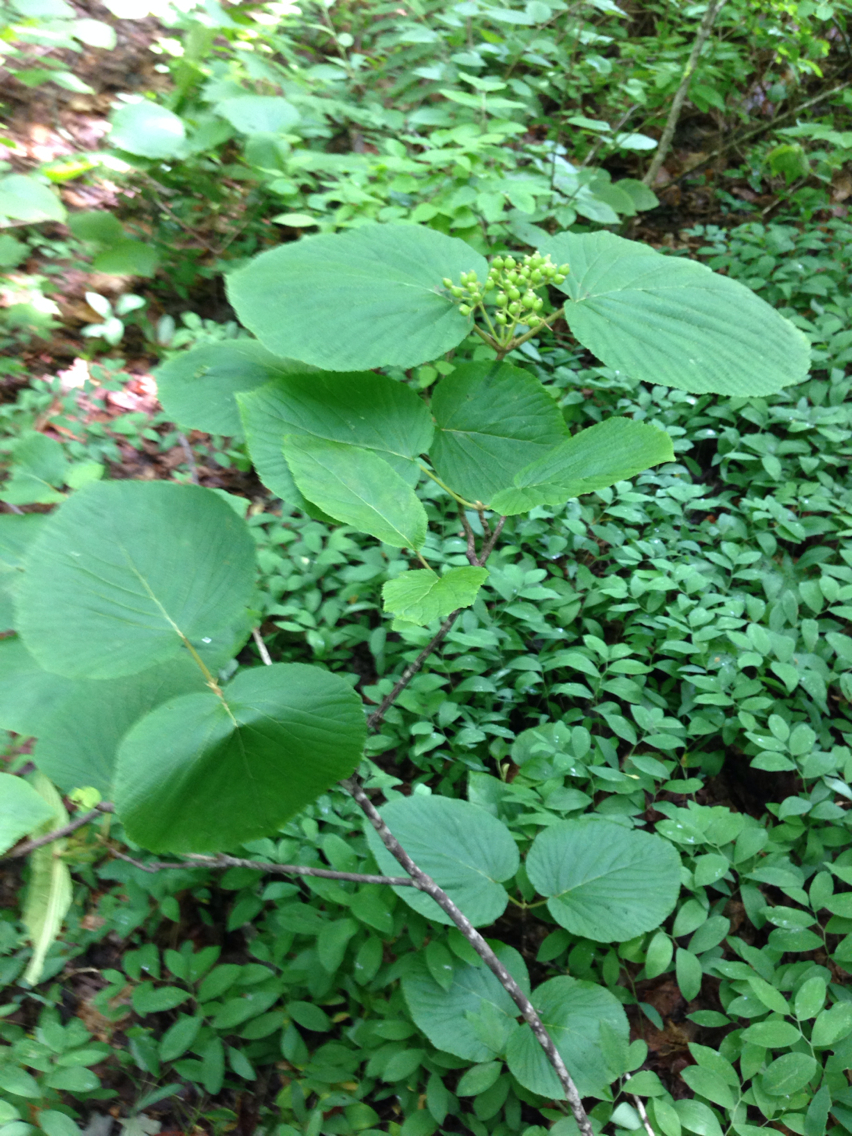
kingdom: Plantae
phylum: Tracheophyta
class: Magnoliopsida
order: Dipsacales
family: Viburnaceae
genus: Viburnum
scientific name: Viburnum lantanoides
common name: Hobblebush
